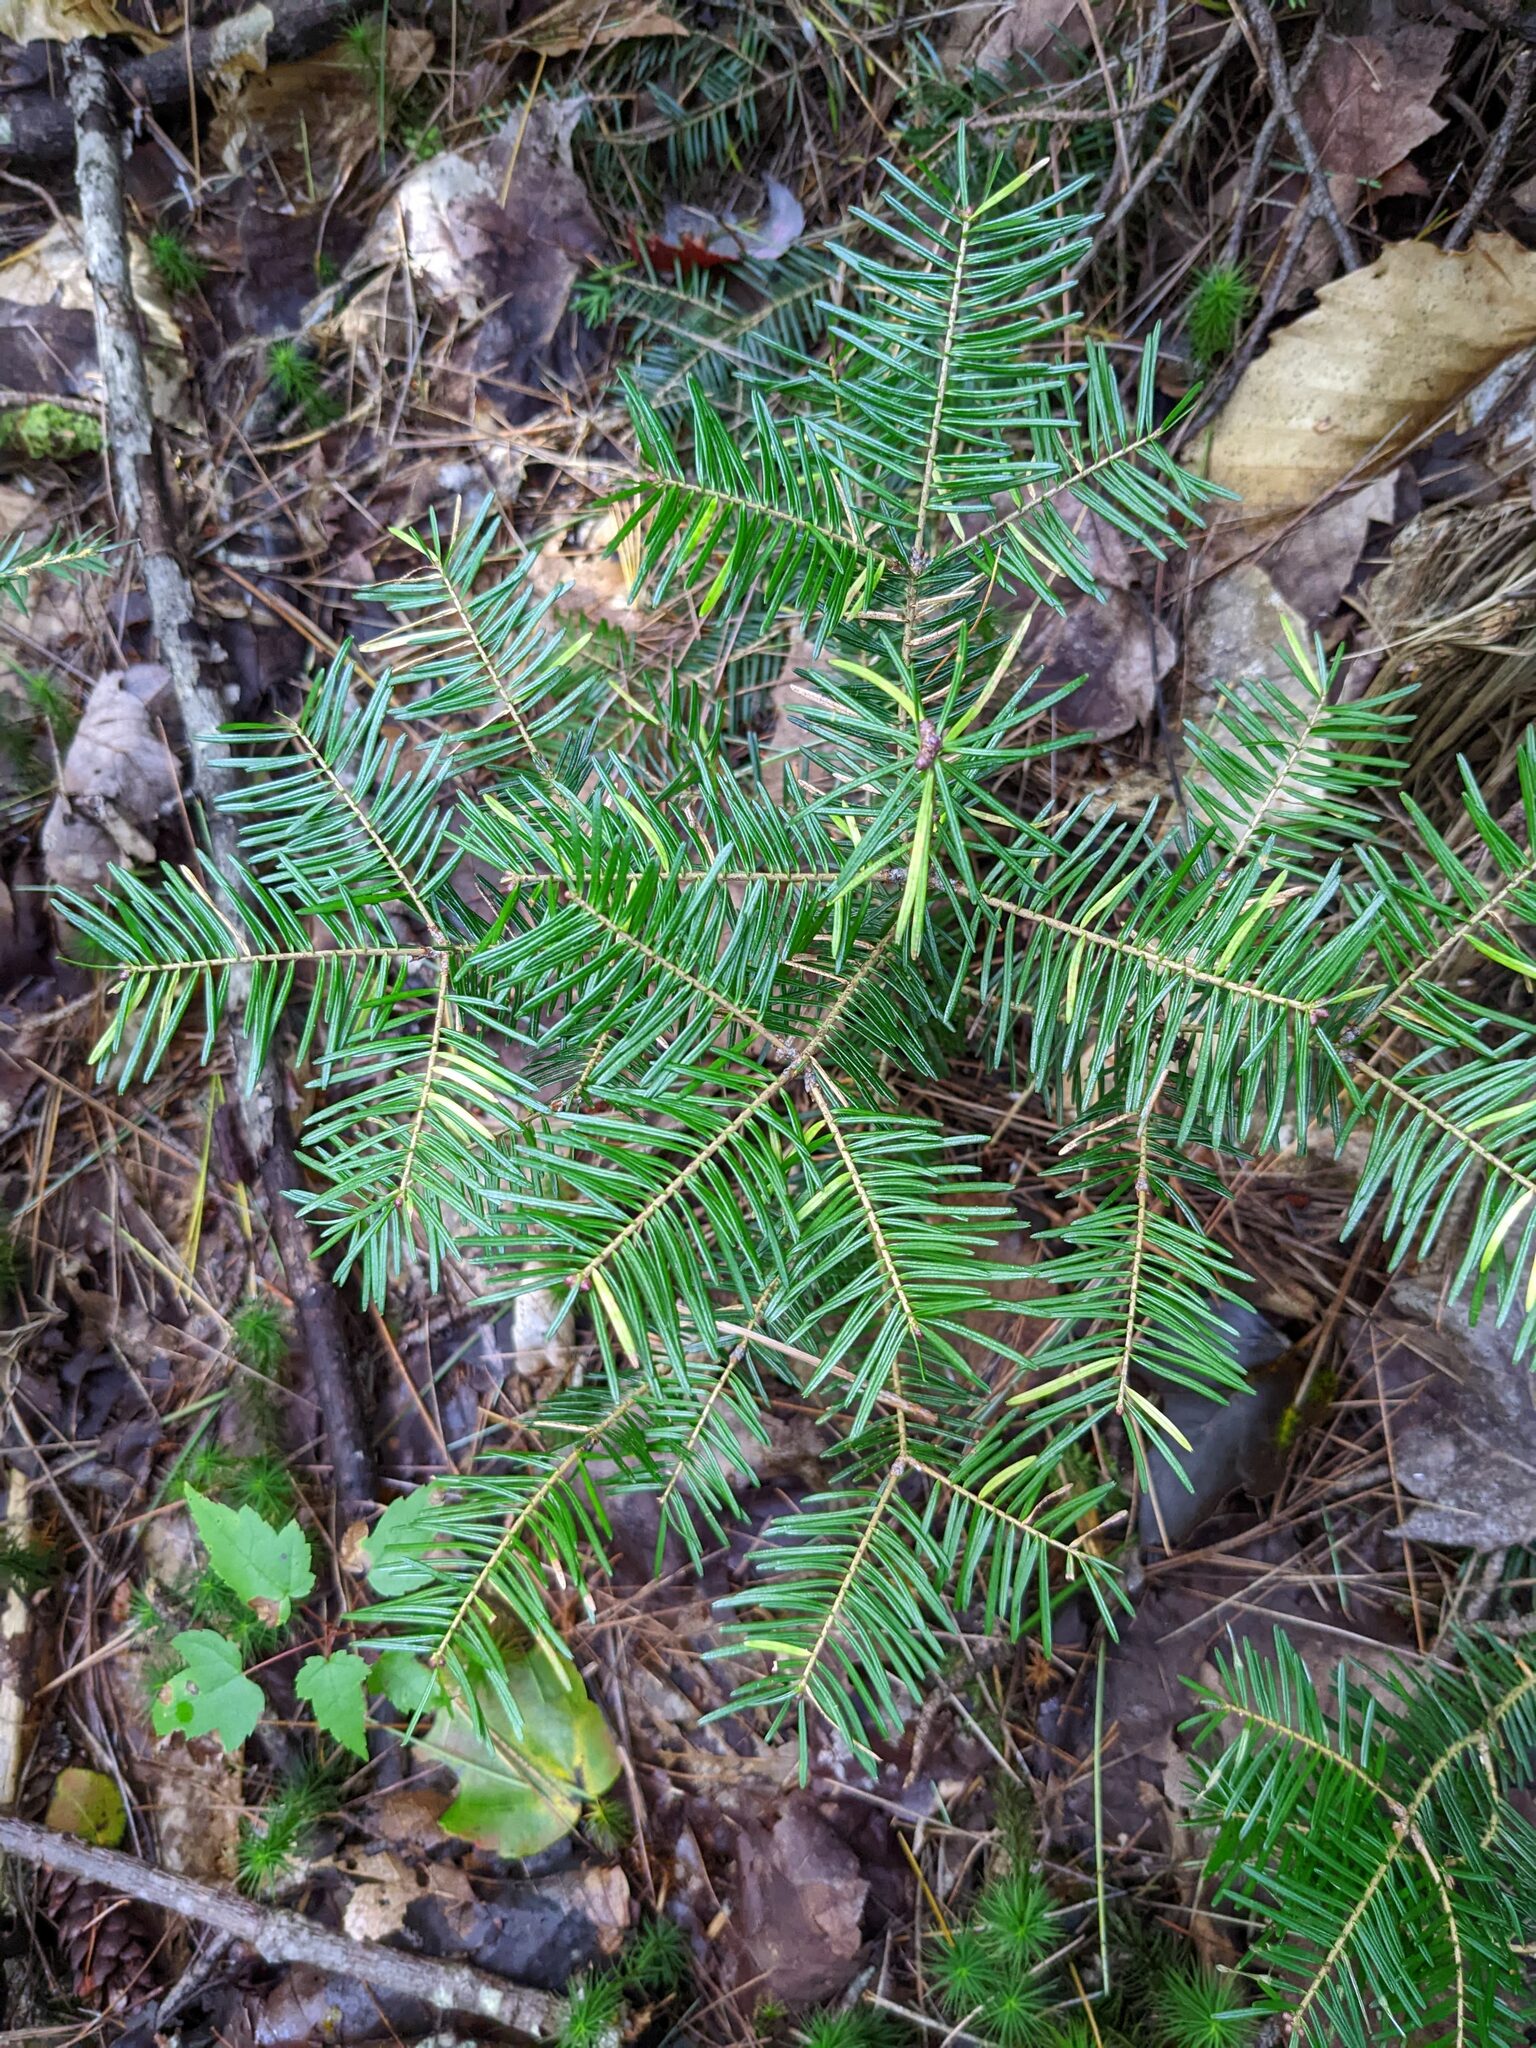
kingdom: Plantae
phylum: Tracheophyta
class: Pinopsida
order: Pinales
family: Pinaceae
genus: Abies
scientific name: Abies balsamea
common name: Balsam fir
